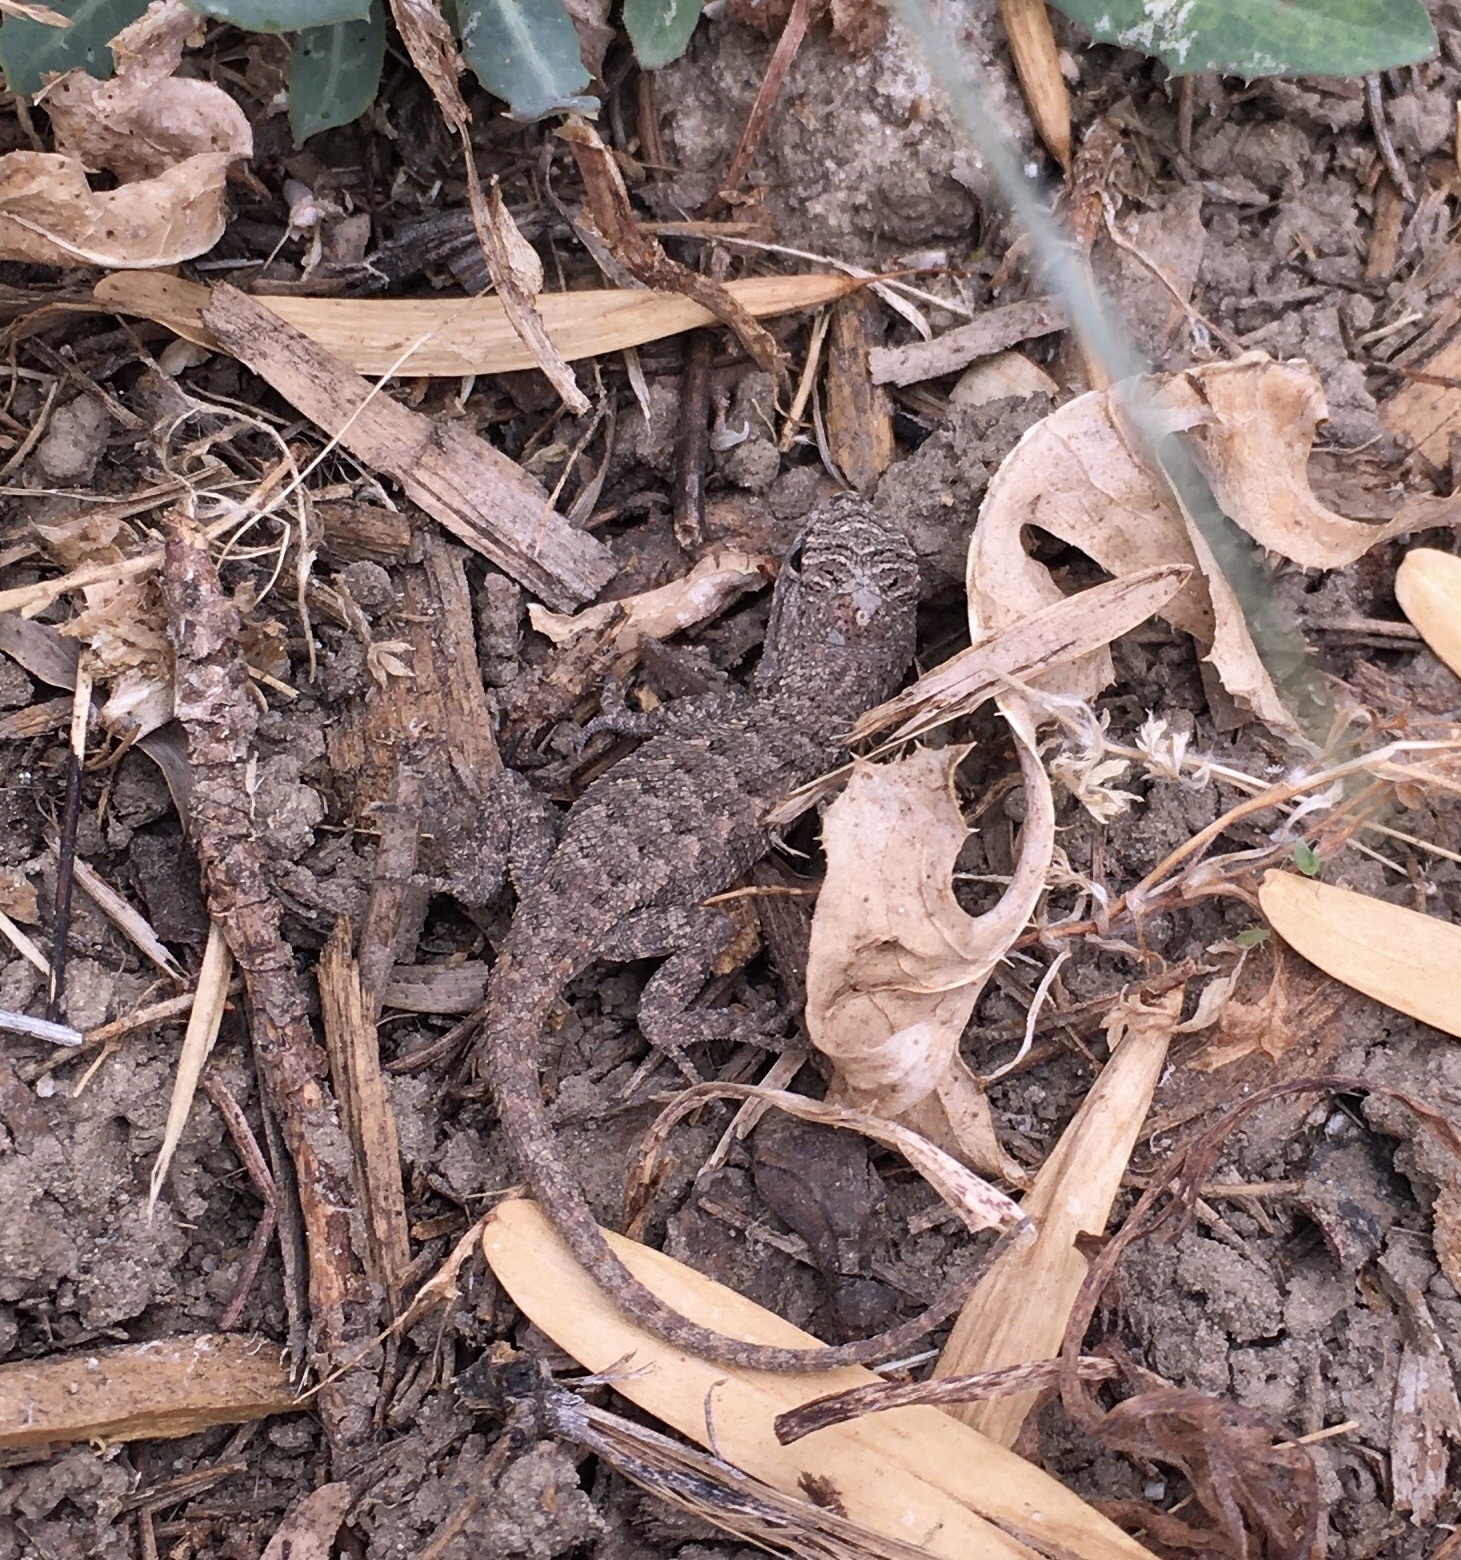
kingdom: Animalia
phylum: Chordata
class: Squamata
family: Phrynosomatidae
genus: Sceloporus
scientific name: Sceloporus occidentalis
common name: Western fence lizard
